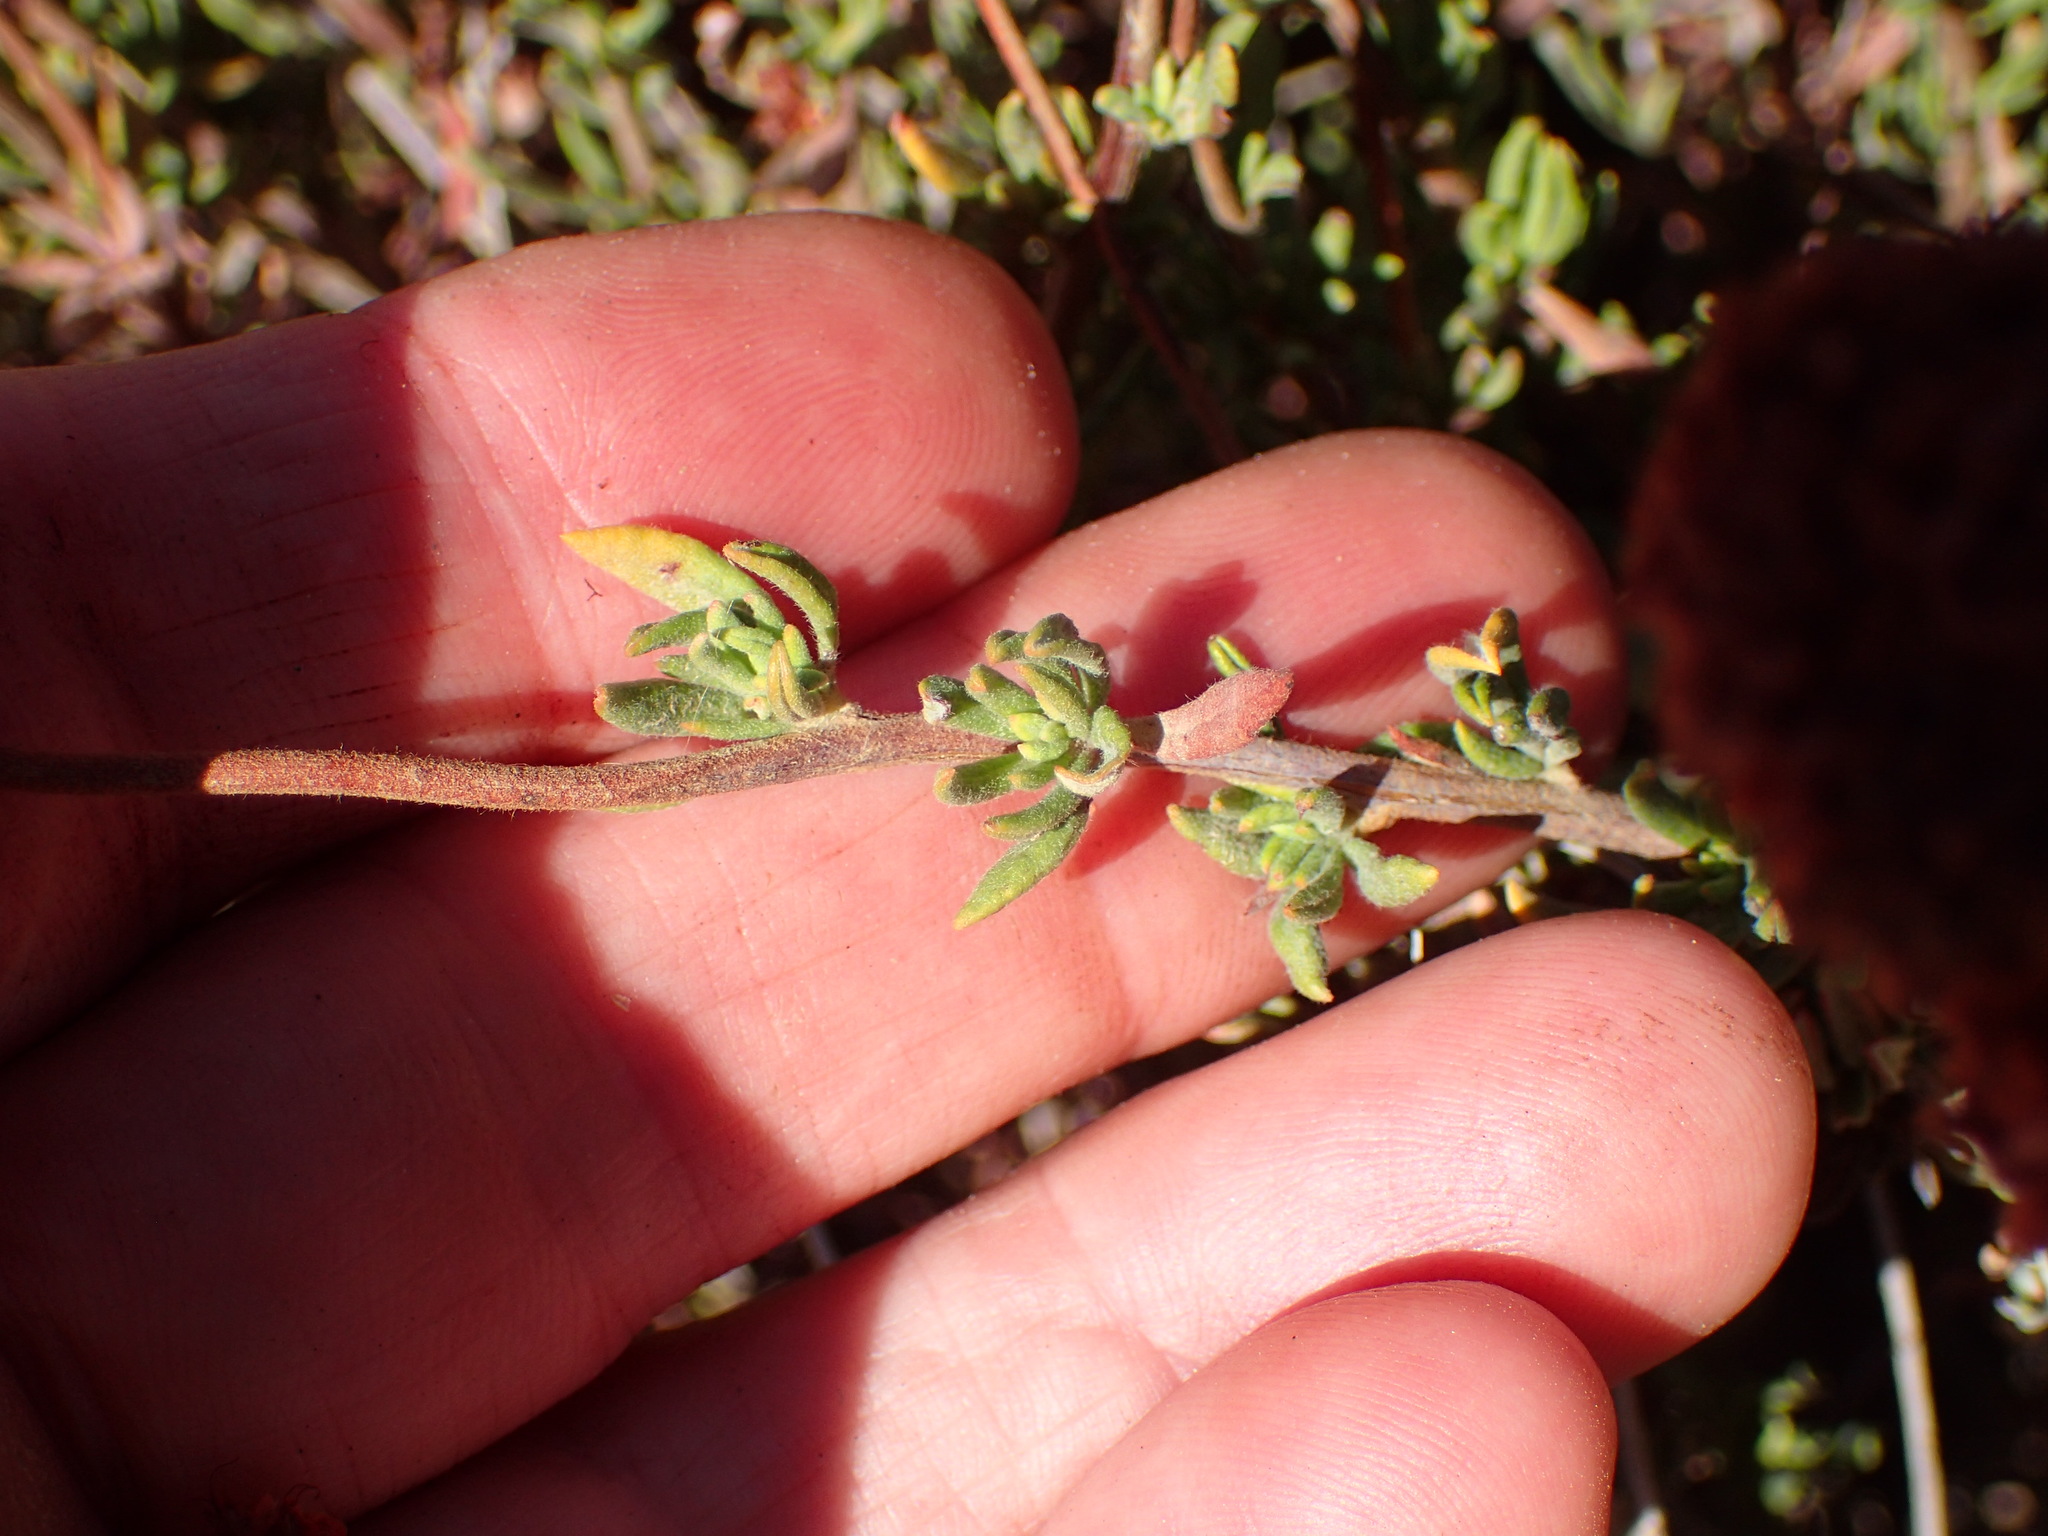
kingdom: Plantae
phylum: Tracheophyta
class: Magnoliopsida
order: Caryophyllales
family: Polygonaceae
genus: Eriogonum
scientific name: Eriogonum fasciculatum
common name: California wild buckwheat
